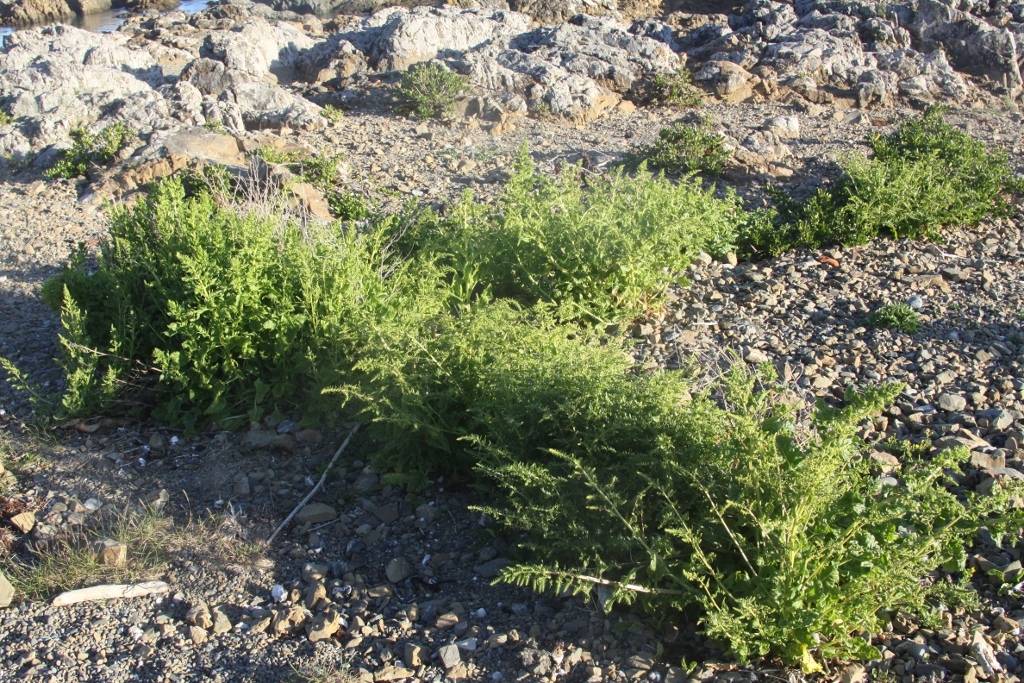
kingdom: Plantae
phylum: Tracheophyta
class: Magnoliopsida
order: Caryophyllales
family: Amaranthaceae
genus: Beta
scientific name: Beta vulgaris
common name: Beet
